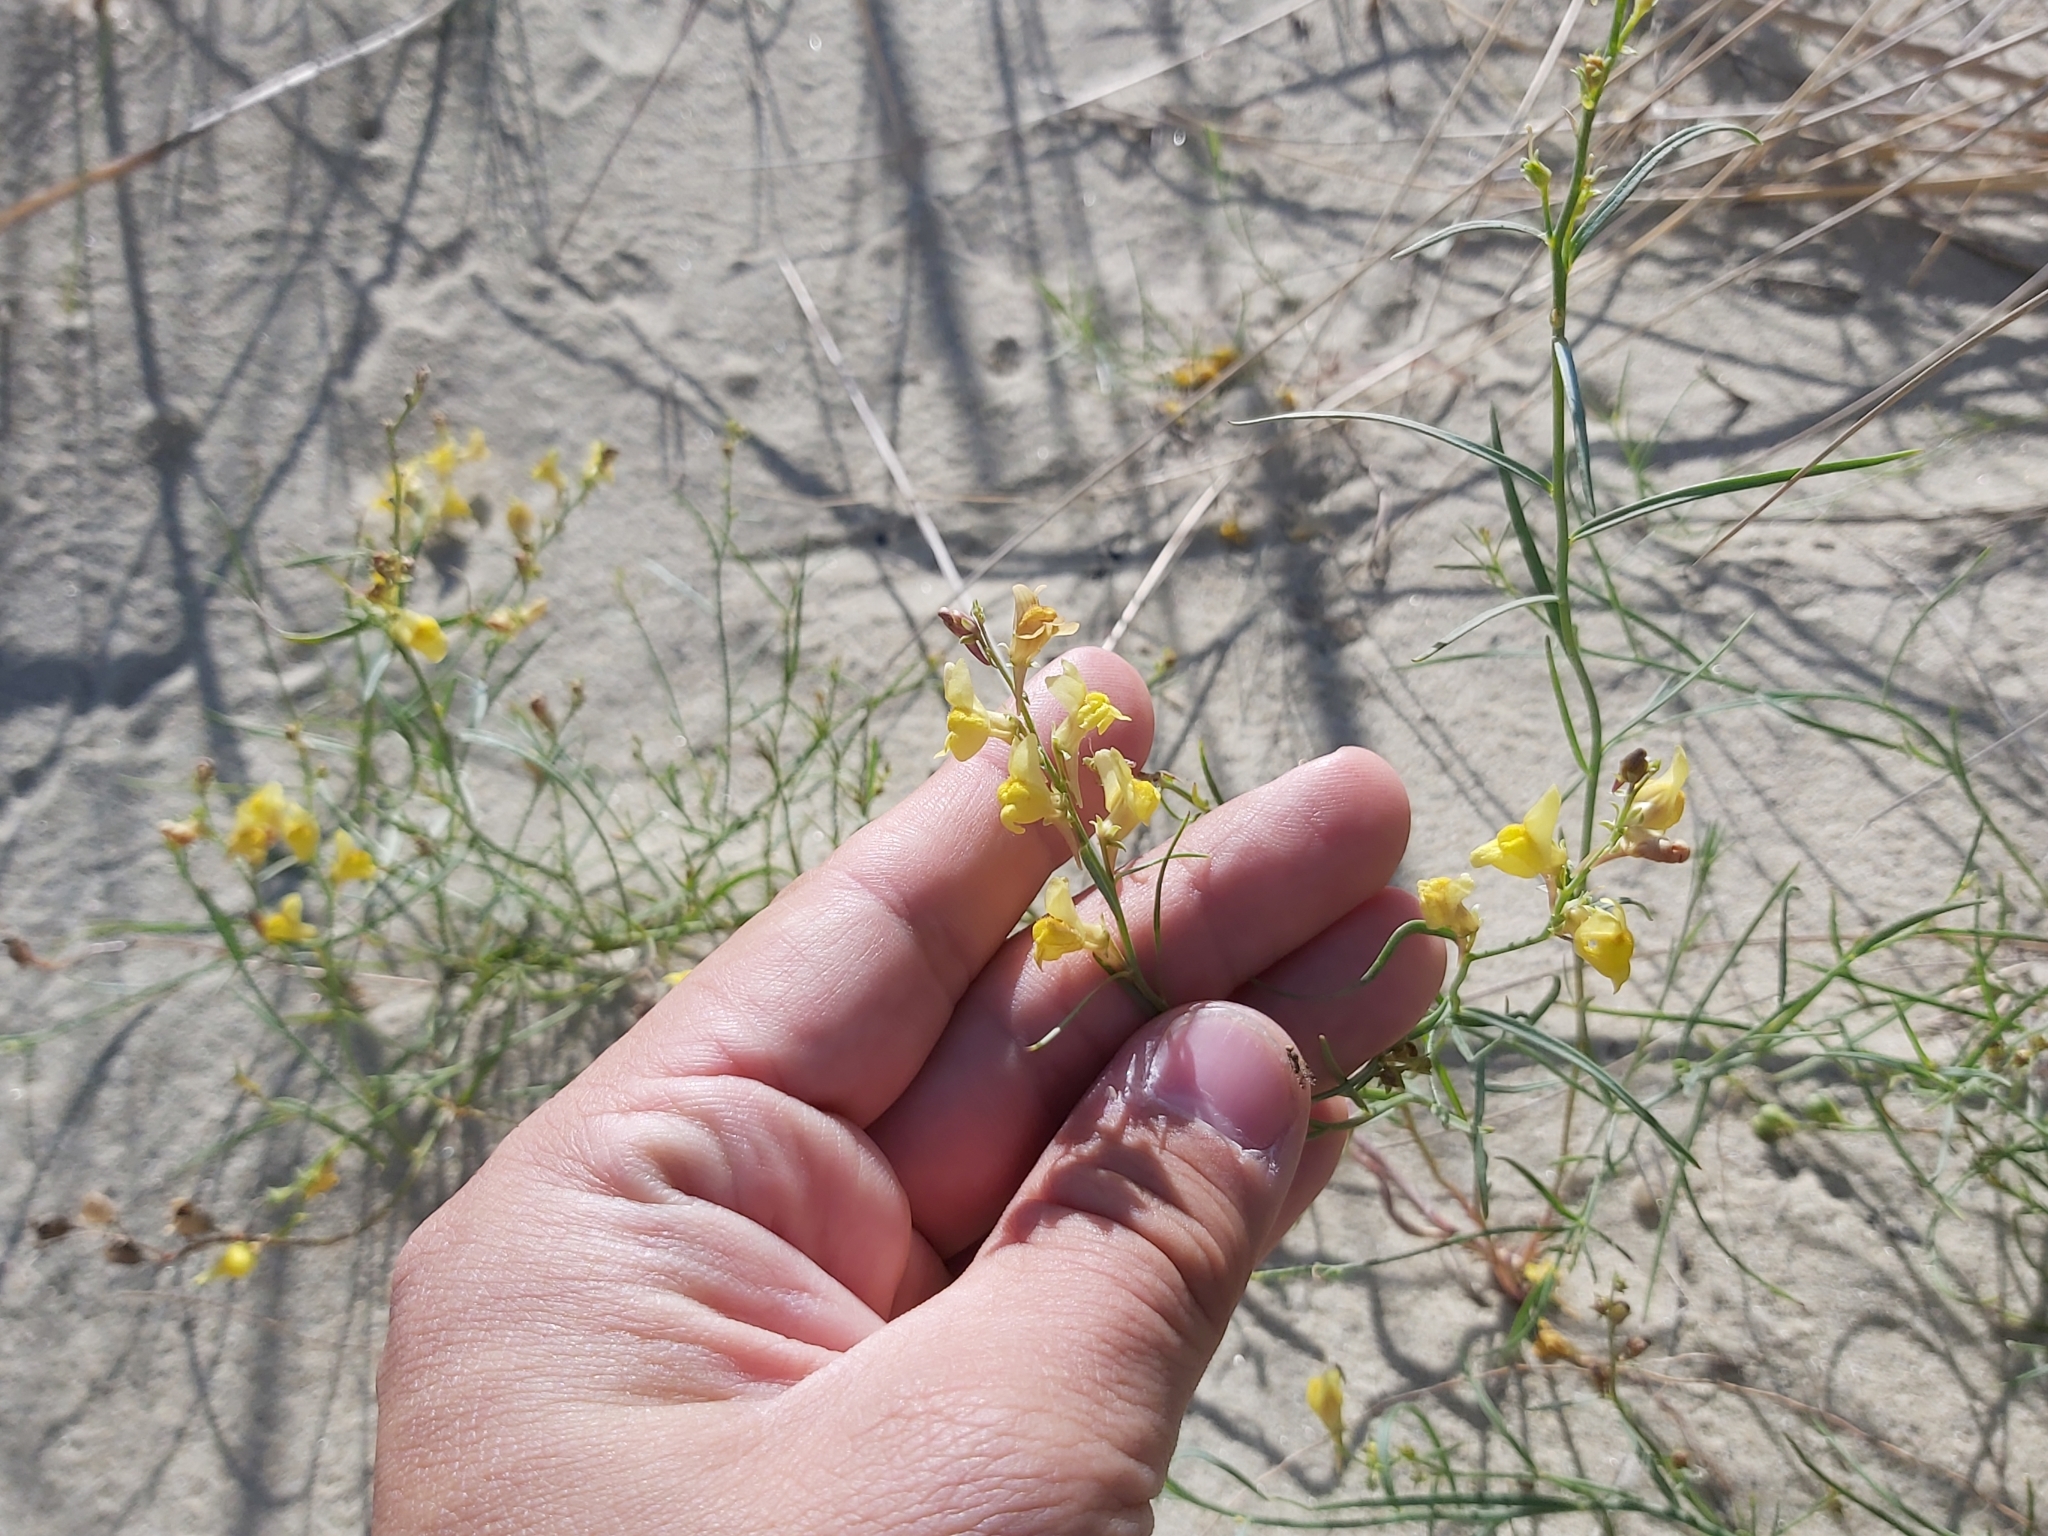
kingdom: Plantae
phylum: Tracheophyta
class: Magnoliopsida
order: Lamiales
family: Plantaginaceae
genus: Linaria
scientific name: Linaria loeselii
